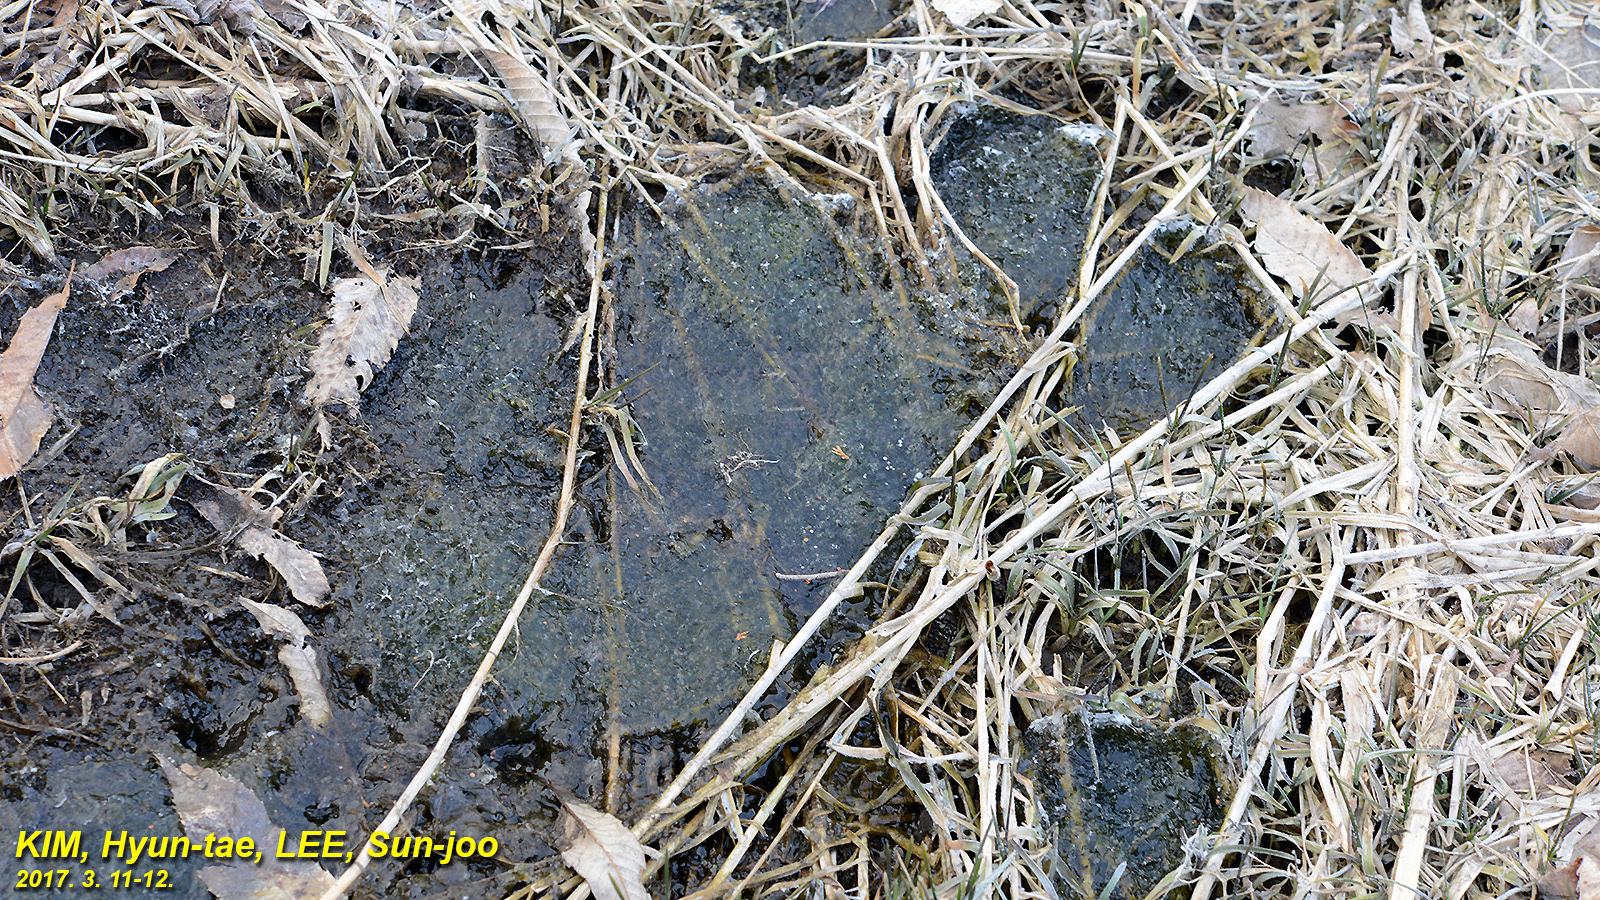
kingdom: Animalia
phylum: Chordata
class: Amphibia
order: Anura
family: Ranidae
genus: Rana
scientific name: Rana uenoi
